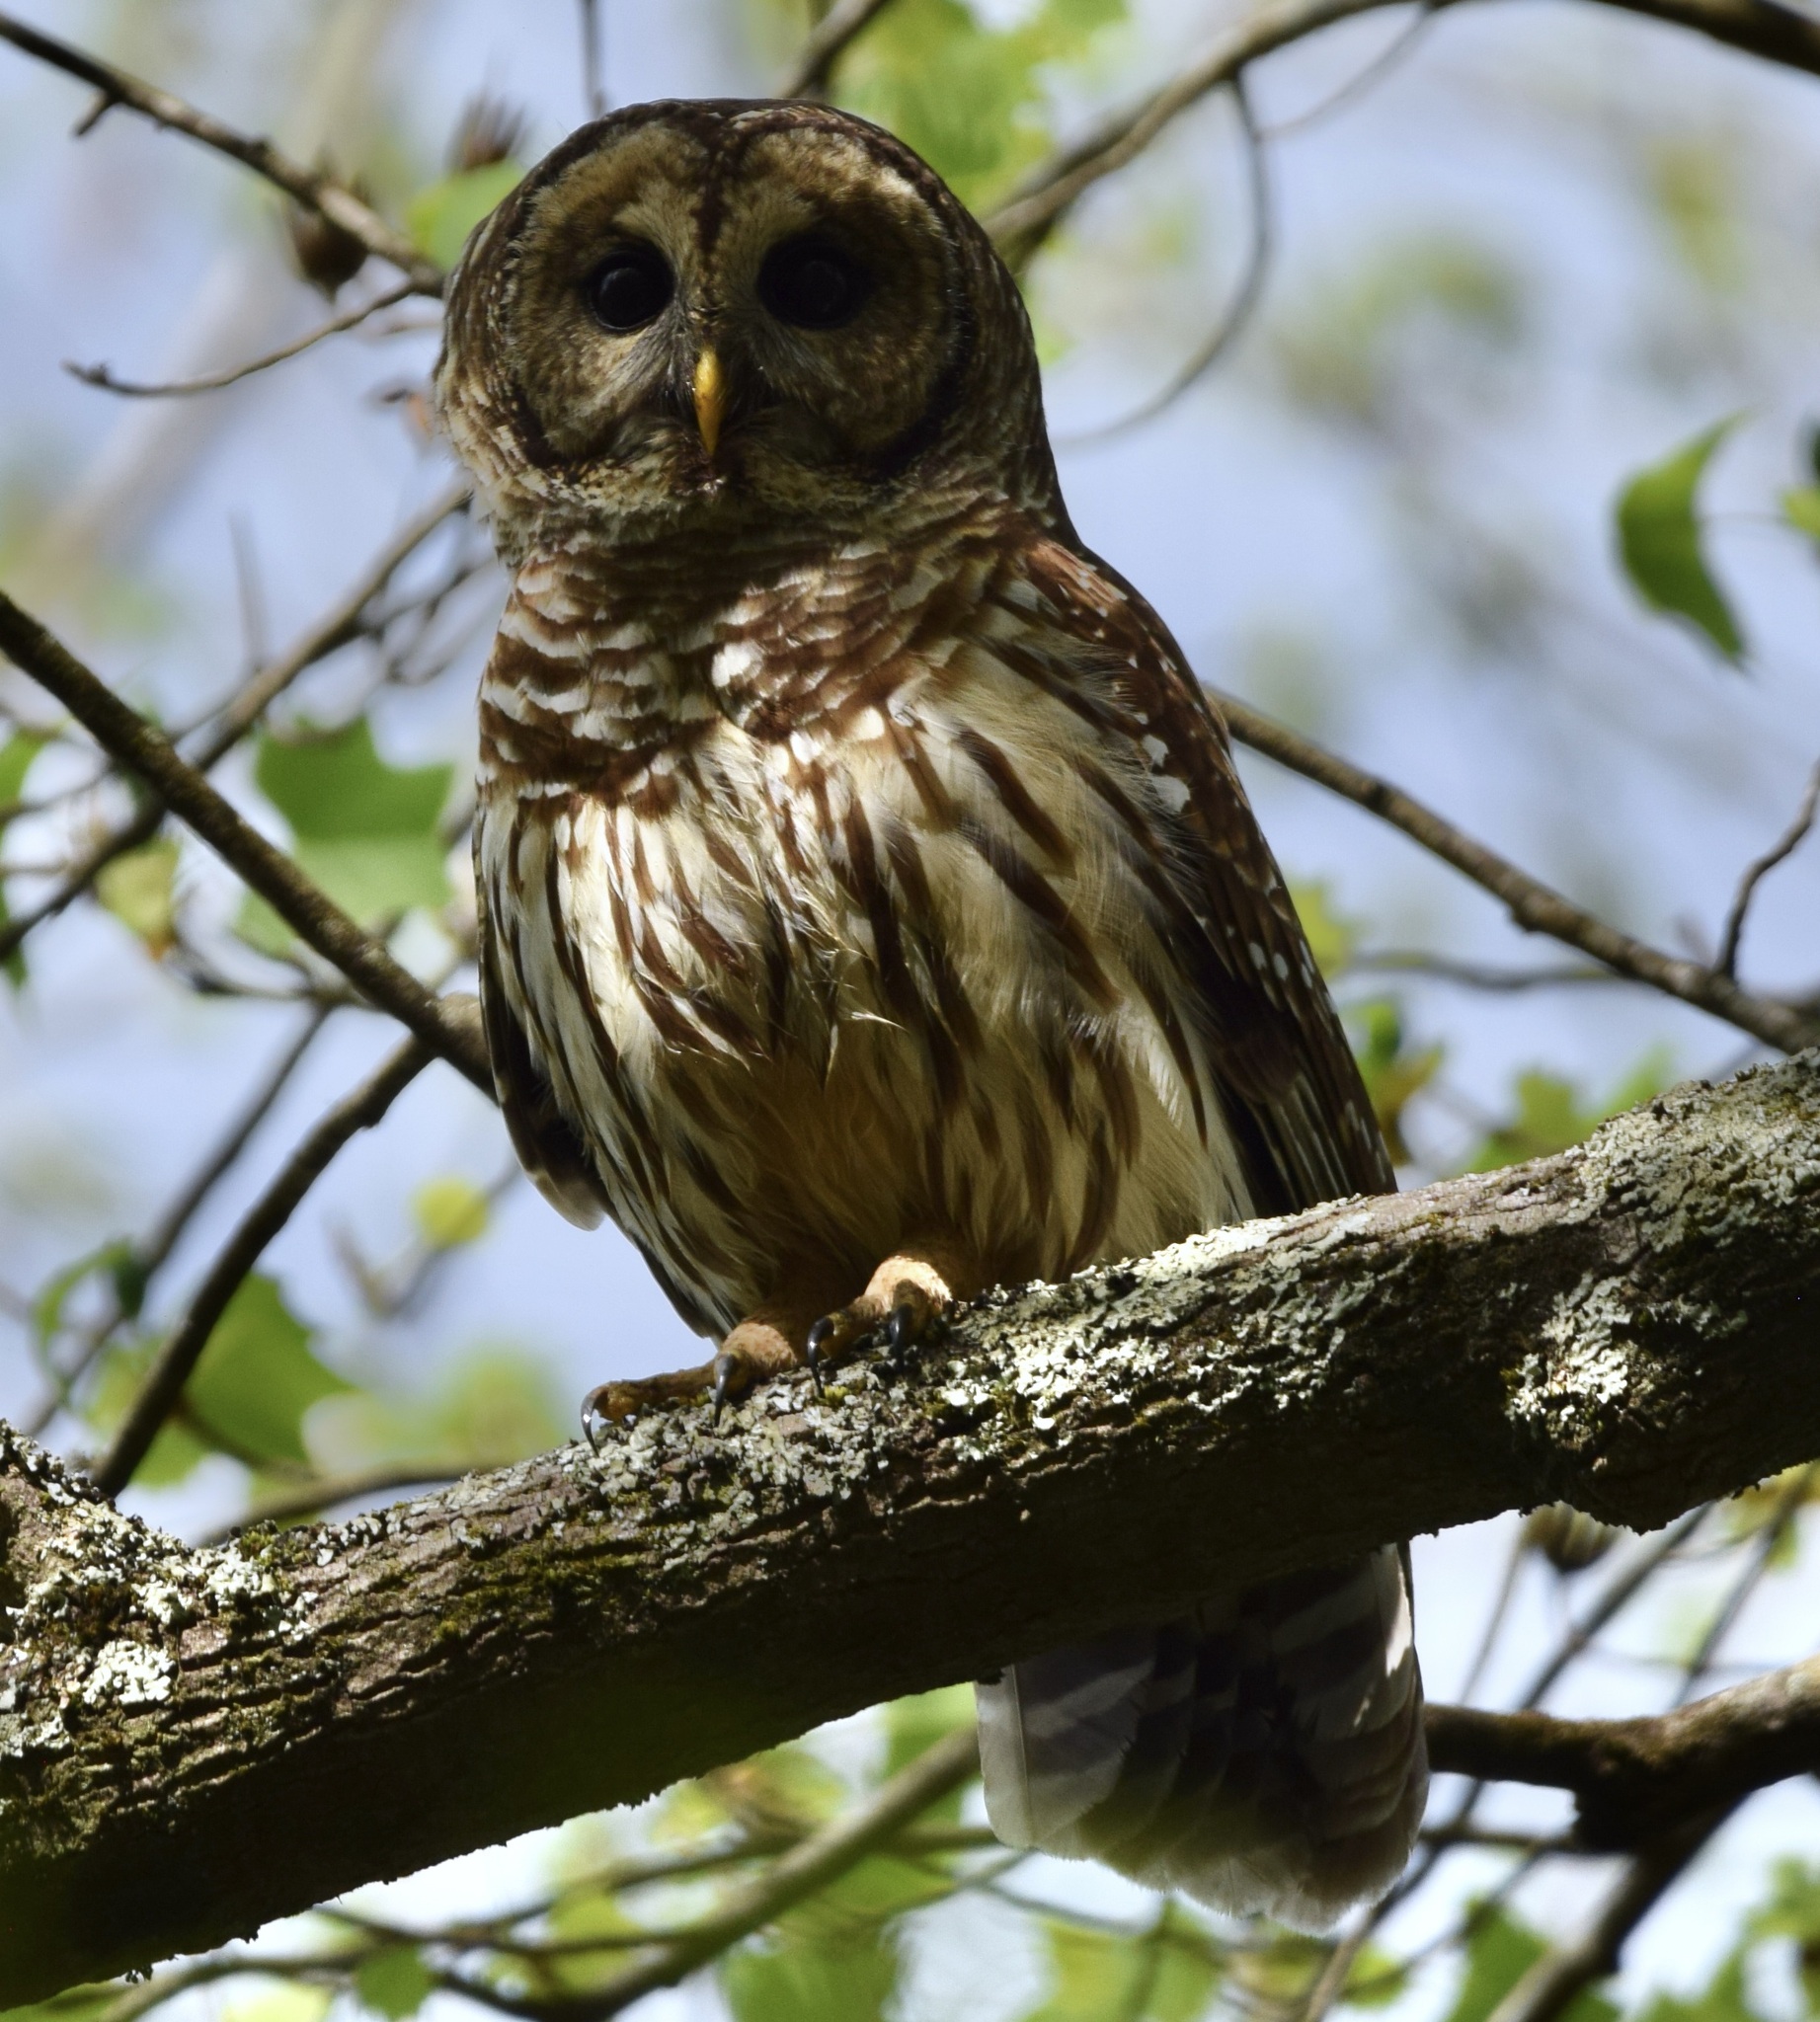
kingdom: Animalia
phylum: Chordata
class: Aves
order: Strigiformes
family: Strigidae
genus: Strix
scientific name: Strix varia
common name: Barred owl
